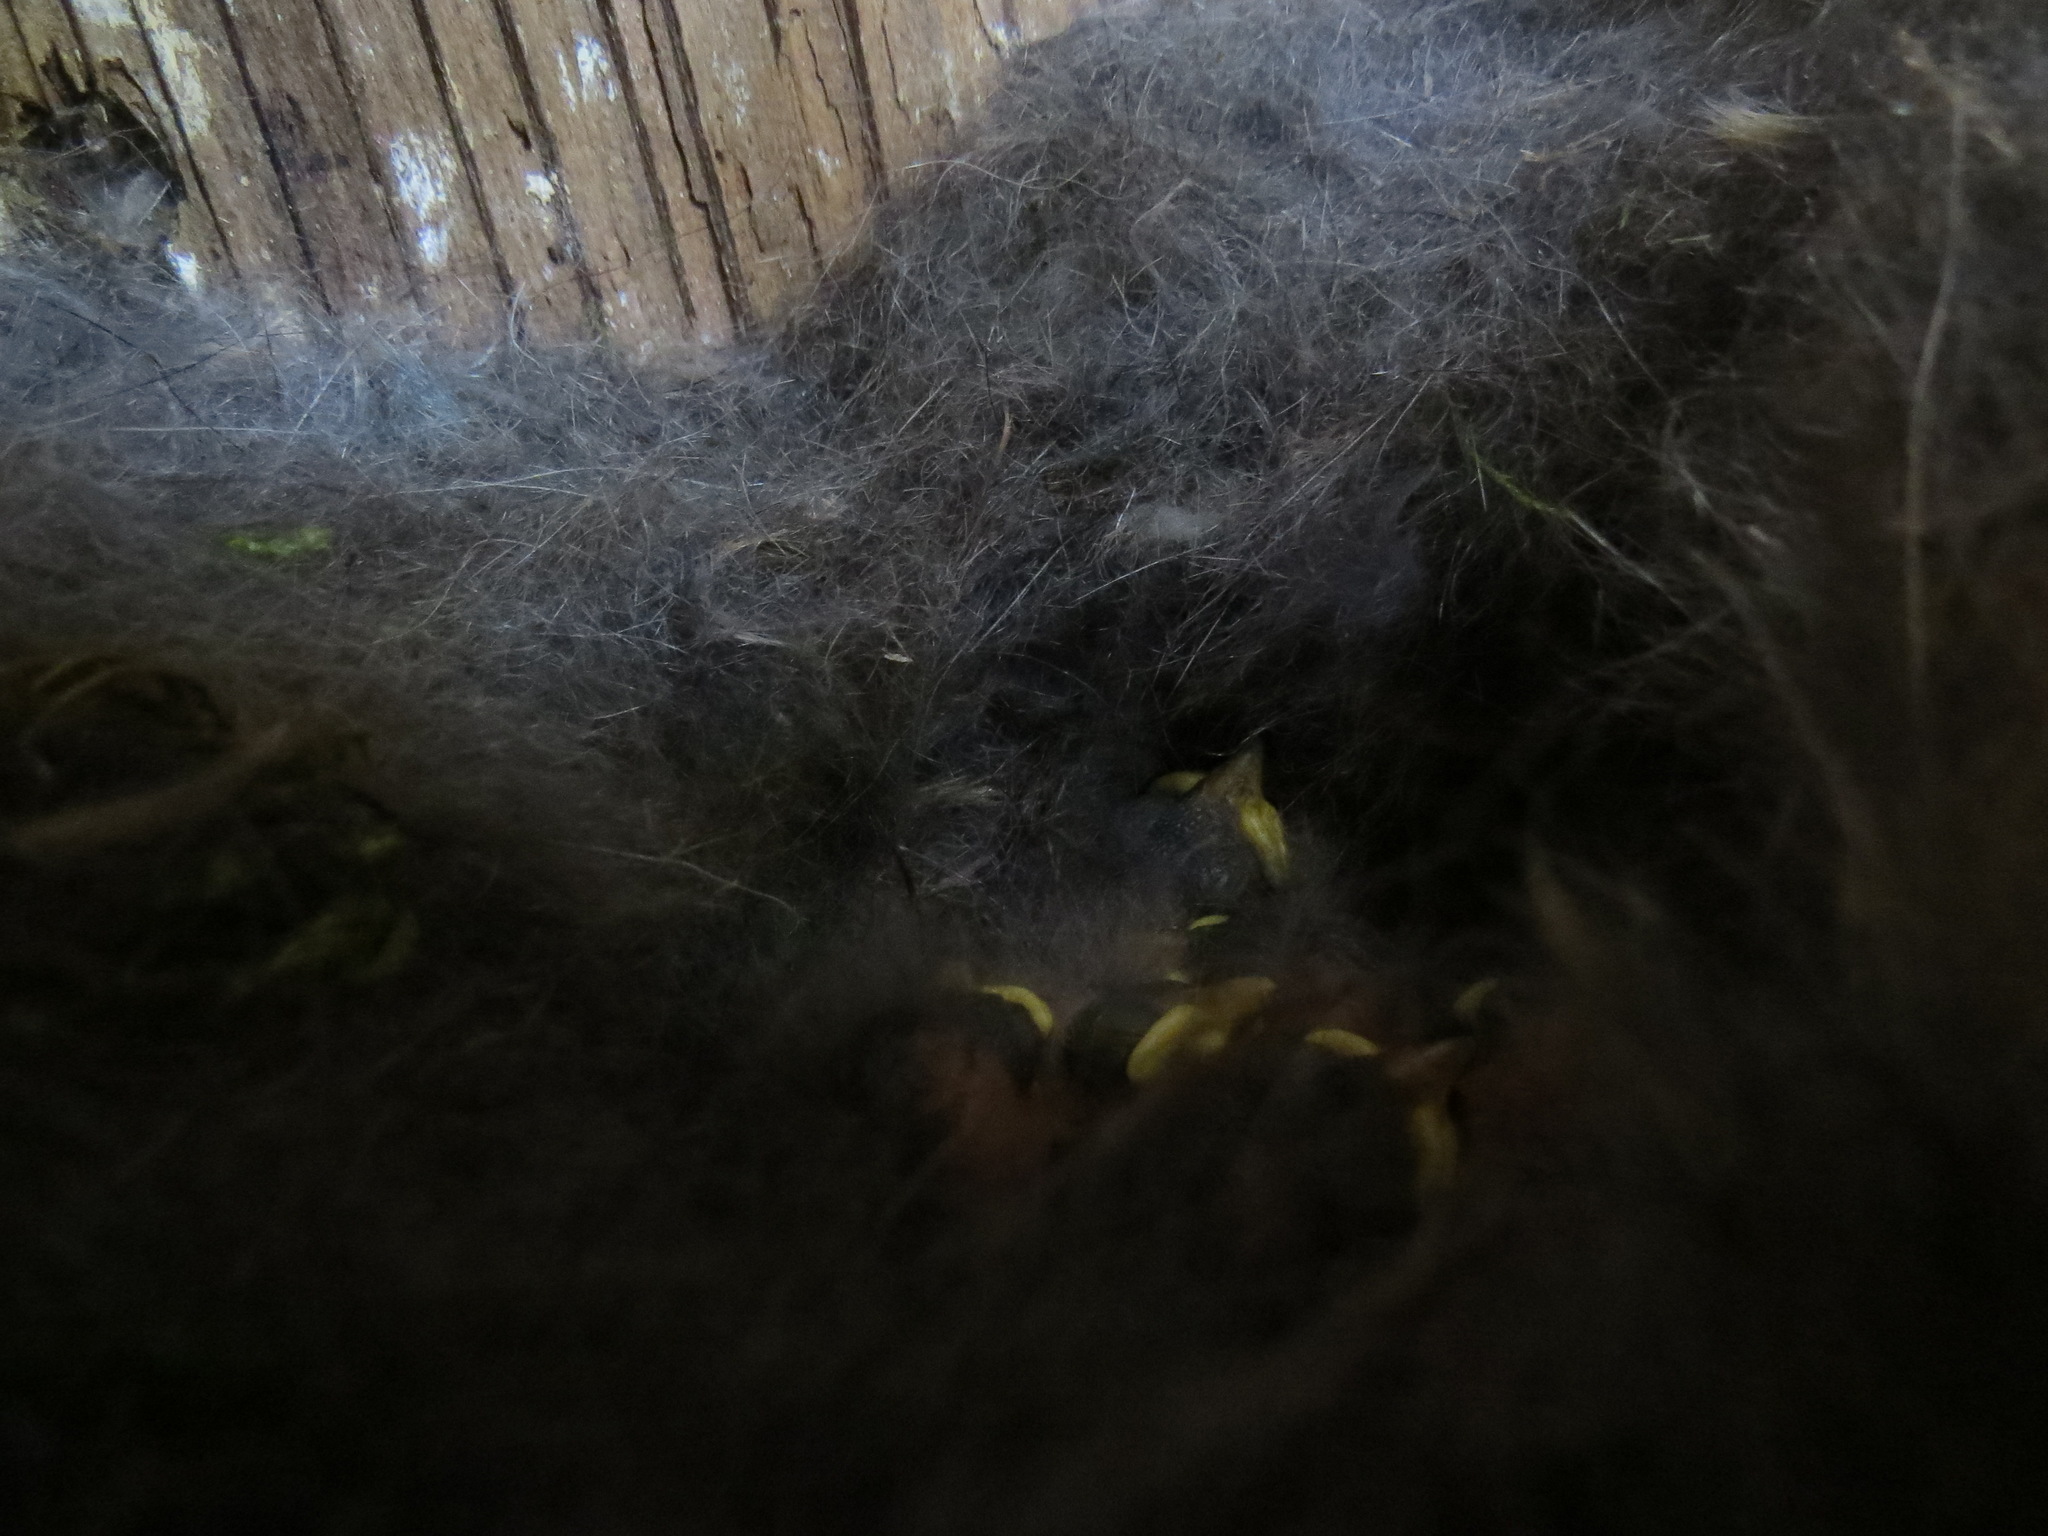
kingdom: Animalia
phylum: Chordata
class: Aves
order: Passeriformes
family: Paridae
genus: Poecile
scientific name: Poecile rufescens
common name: Chestnut-backed chickadee
